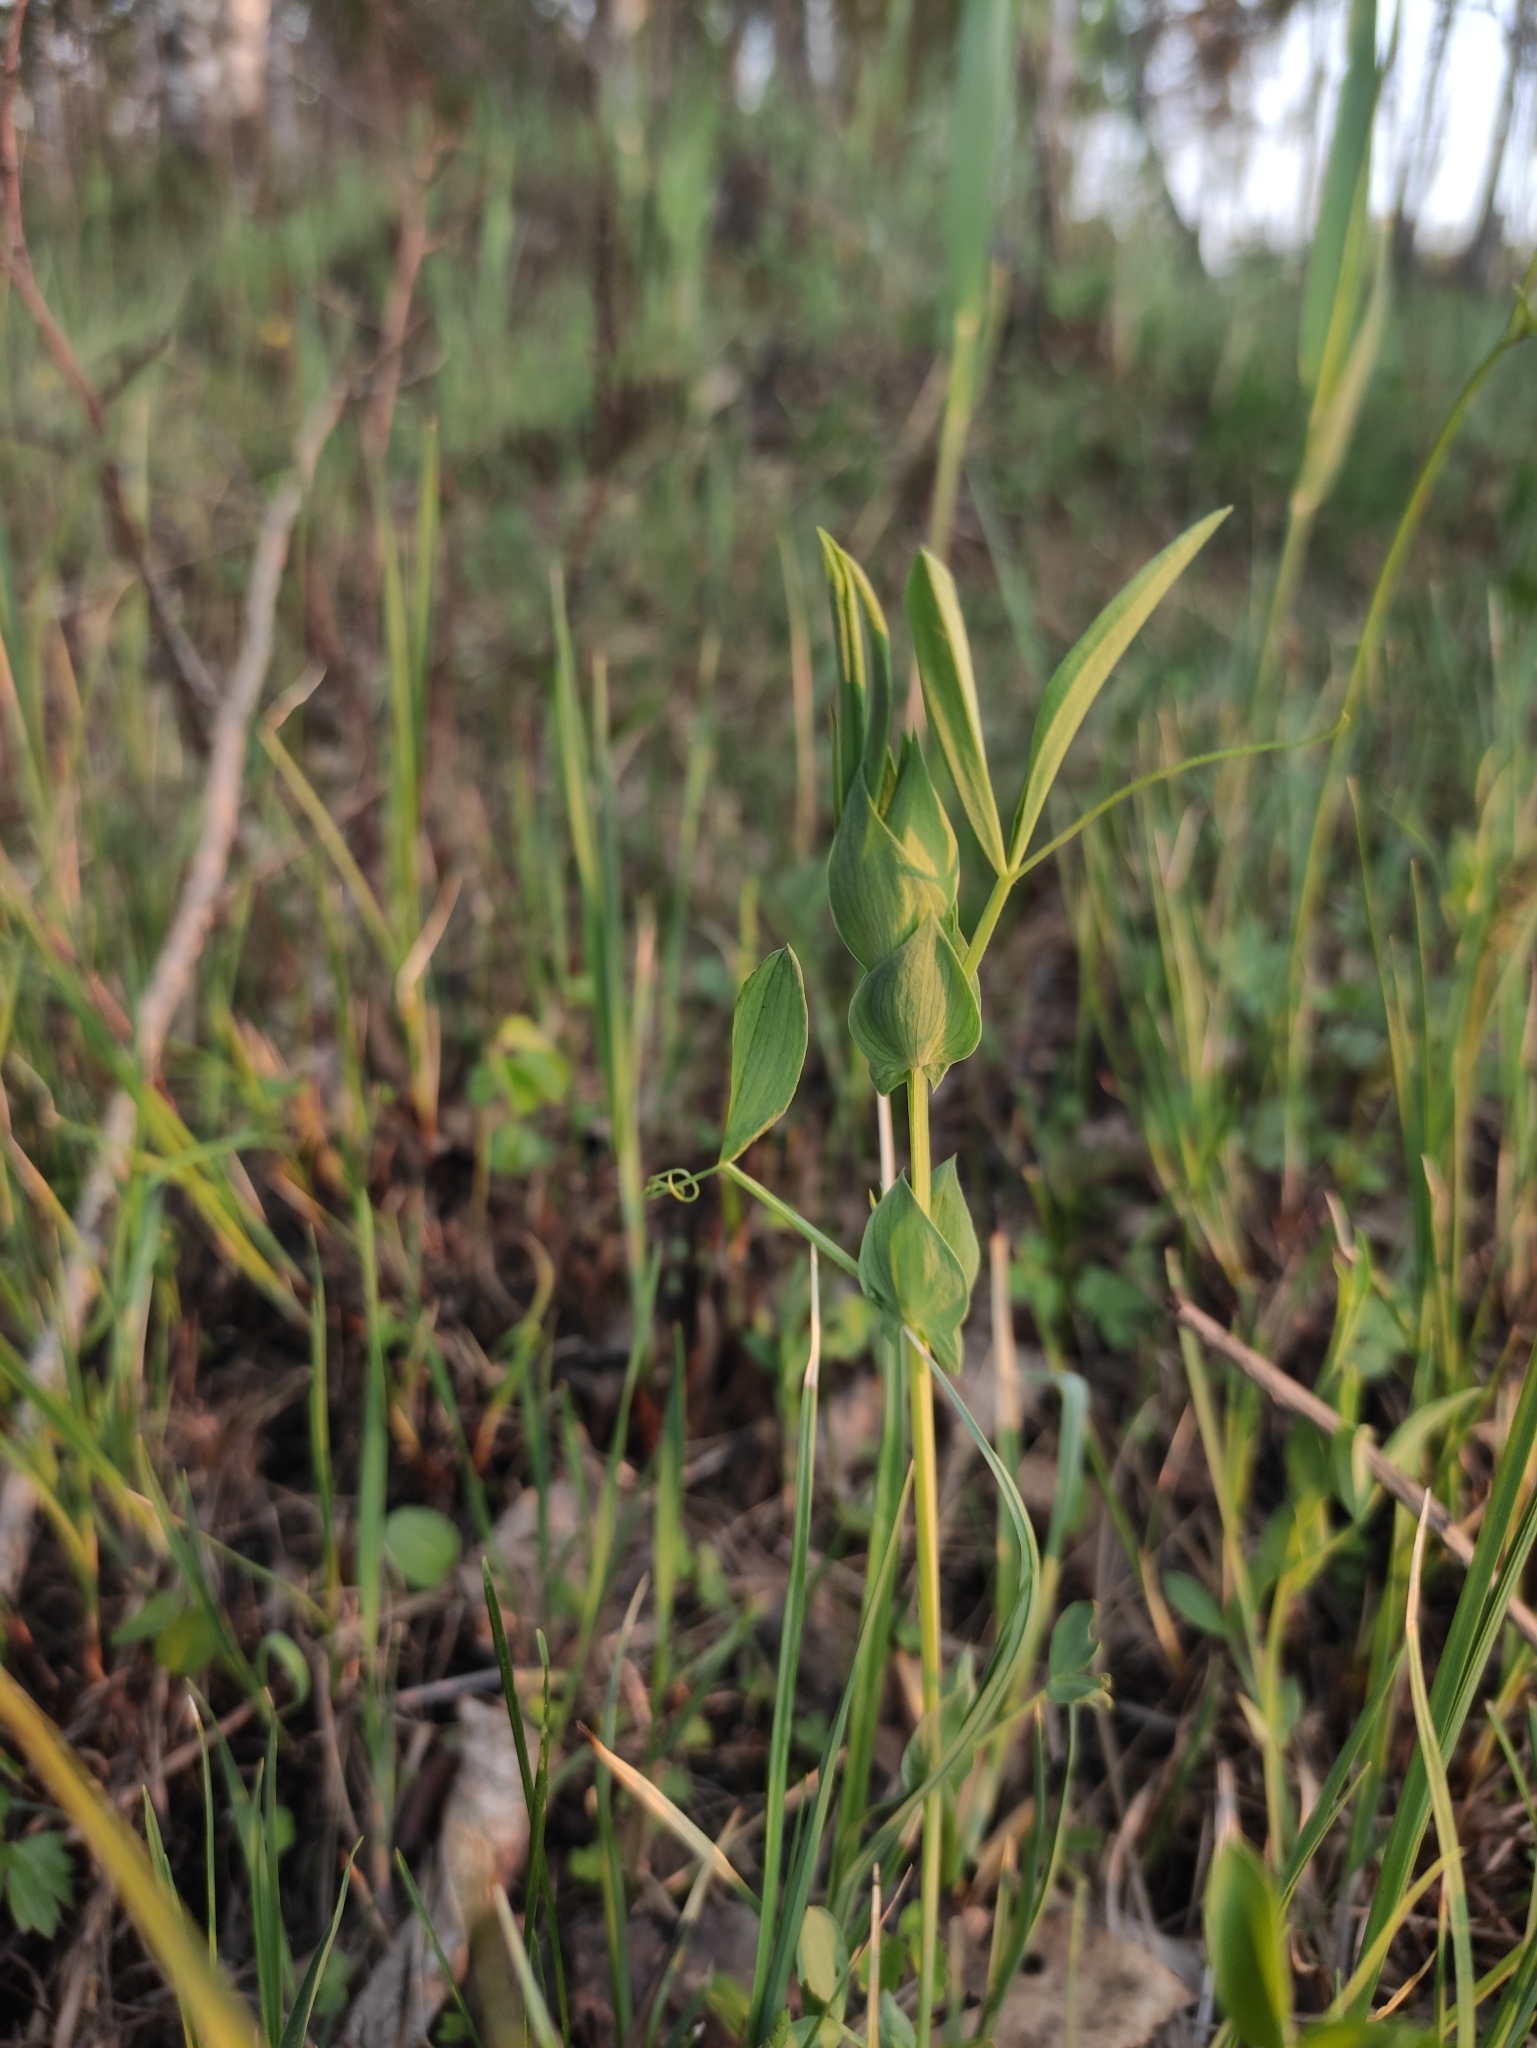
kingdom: Plantae
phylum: Tracheophyta
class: Magnoliopsida
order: Fabales
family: Fabaceae
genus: Lathyrus
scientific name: Lathyrus pratensis
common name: Meadow vetchling
